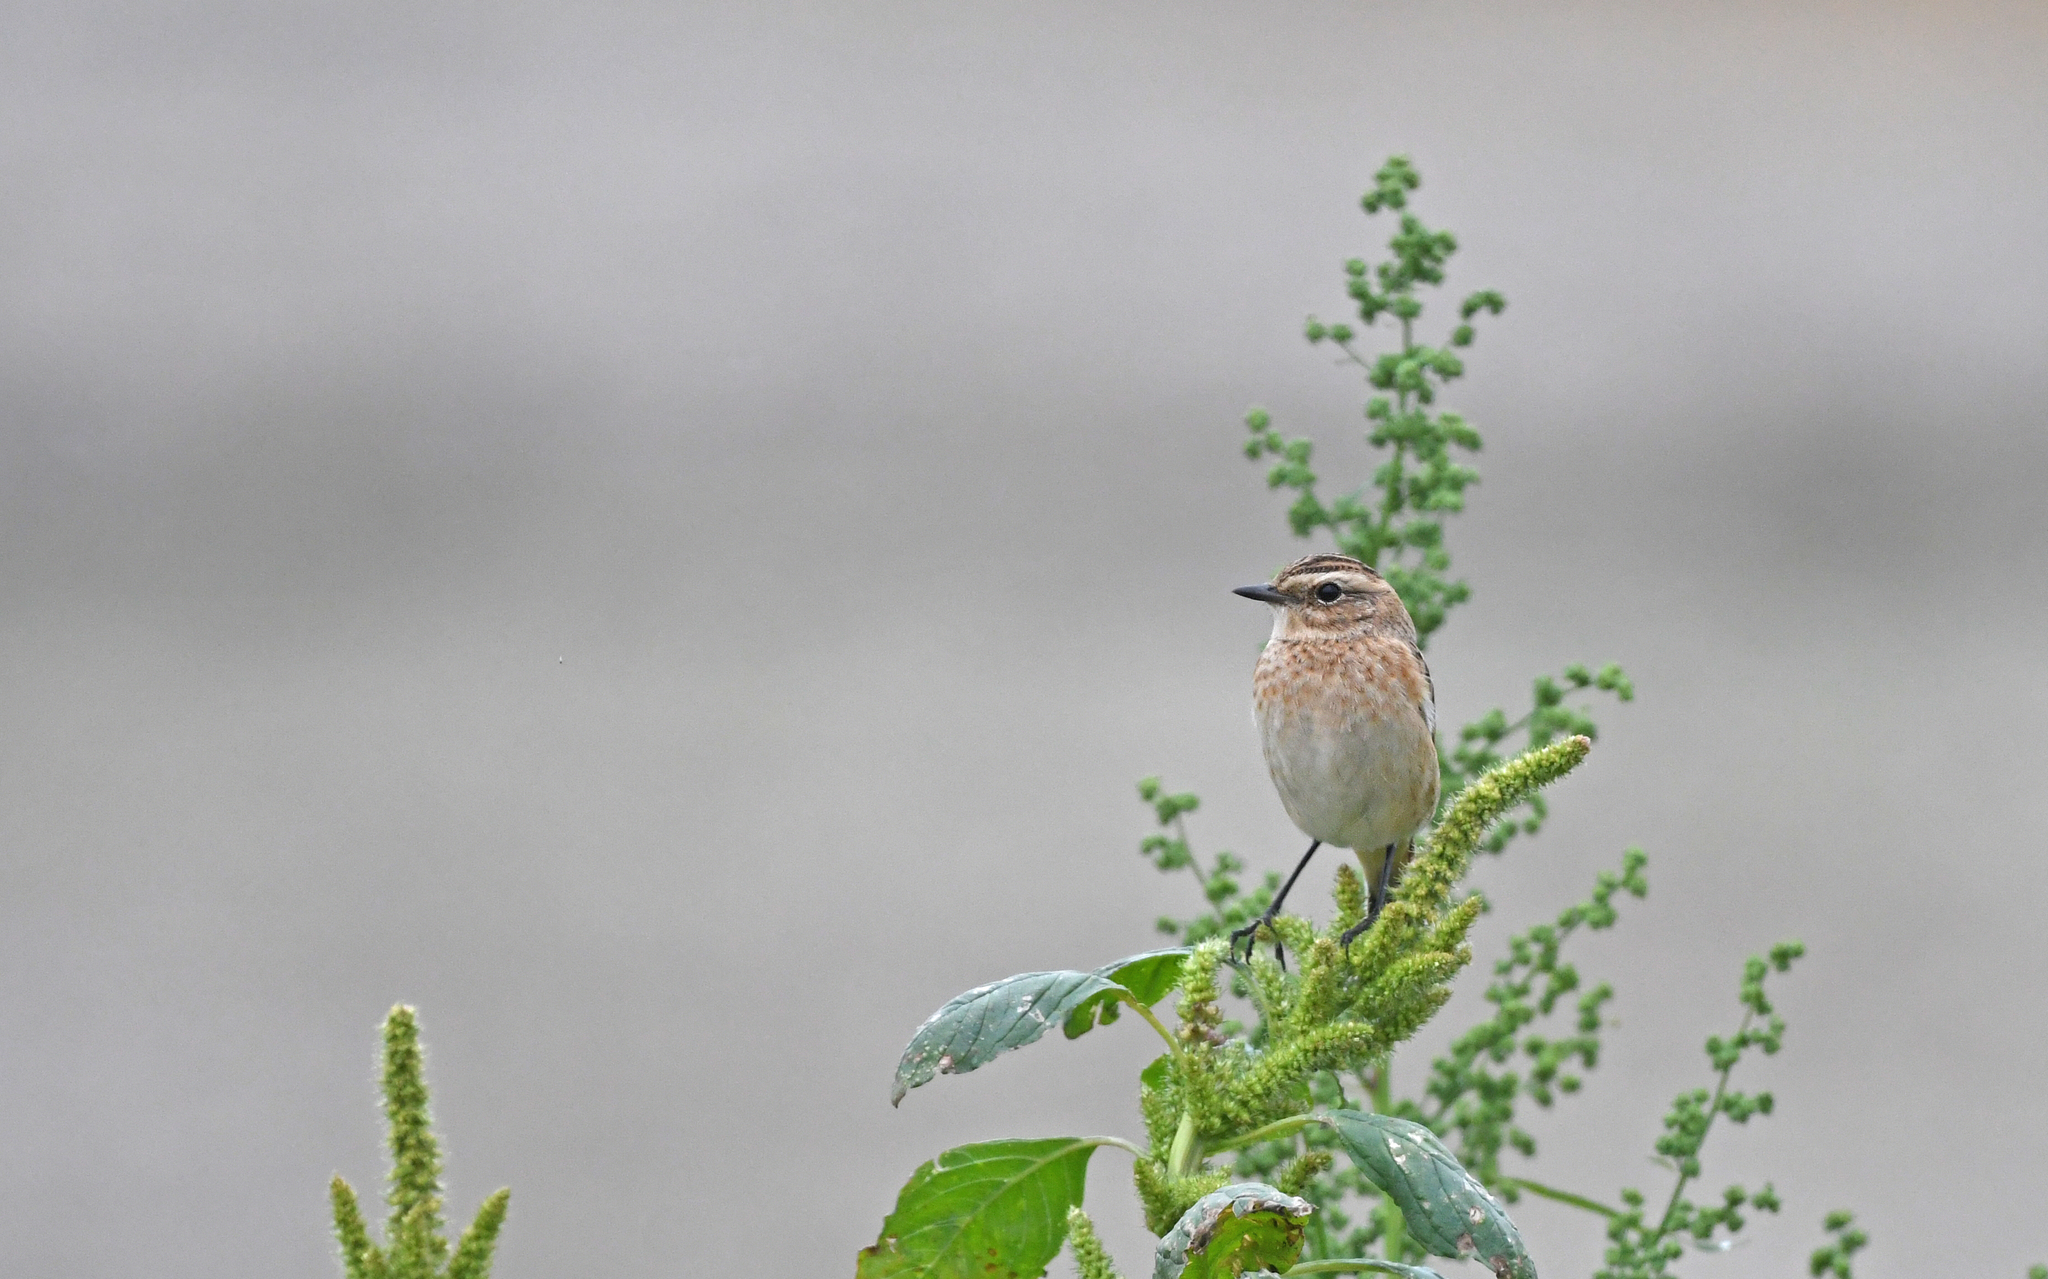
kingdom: Animalia
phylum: Chordata
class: Aves
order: Passeriformes
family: Muscicapidae
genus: Saxicola
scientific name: Saxicola rubetra
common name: Whinchat
